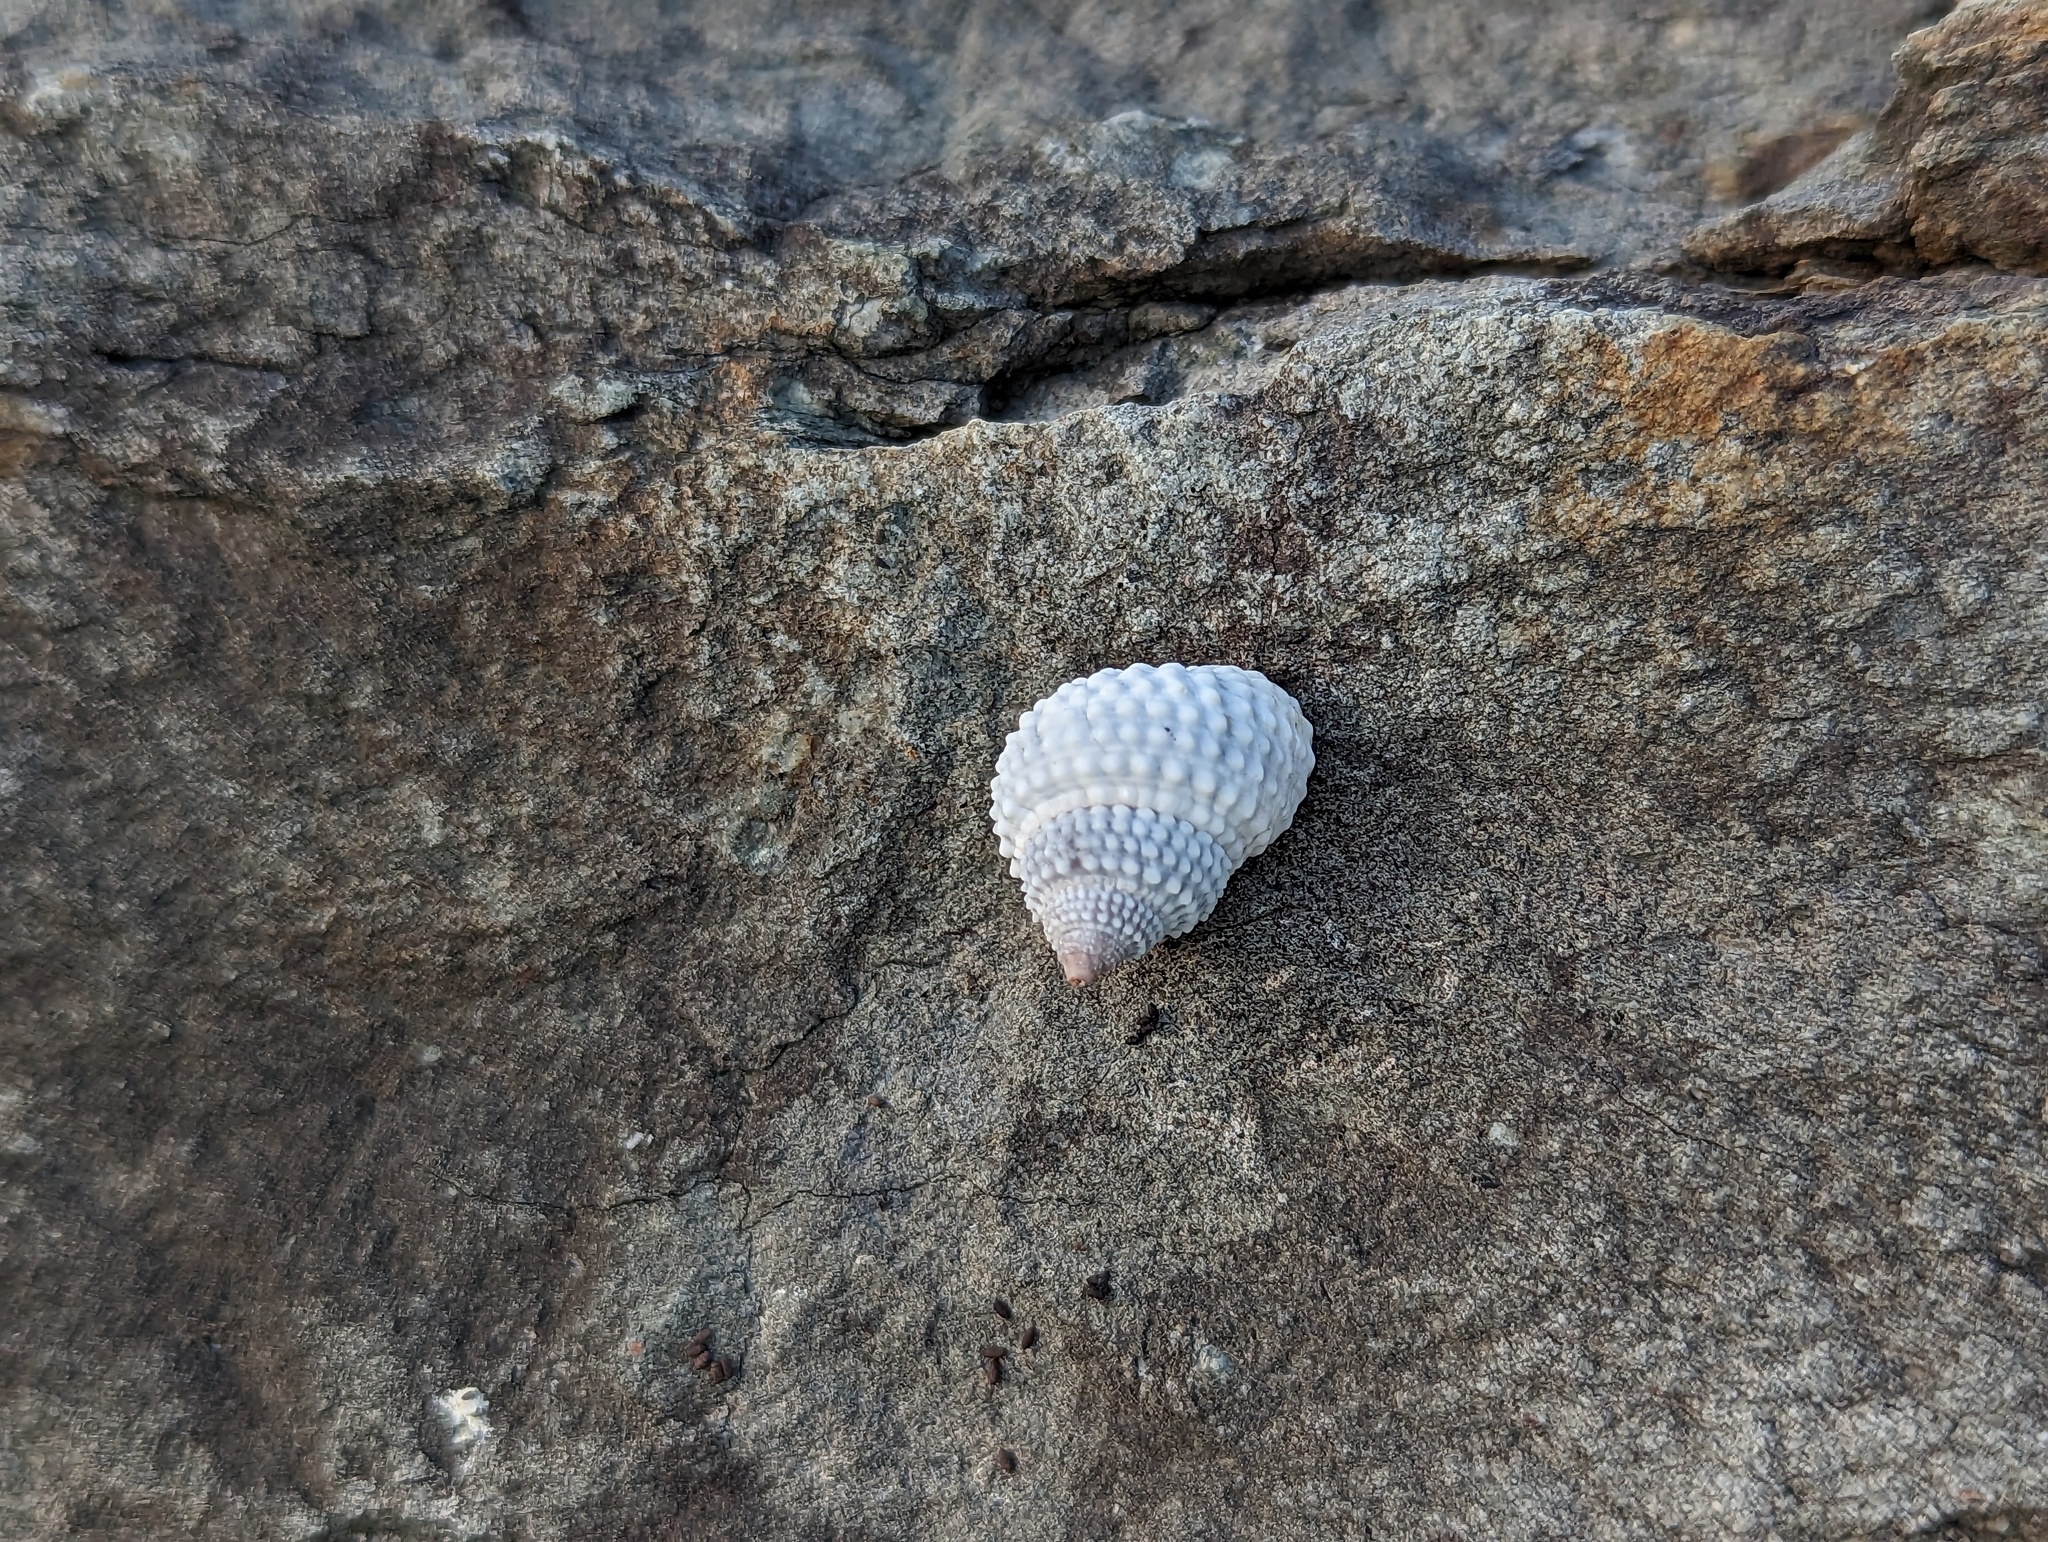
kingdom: Animalia
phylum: Mollusca
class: Gastropoda
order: Littorinimorpha
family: Littorinidae
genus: Cenchritis
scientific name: Cenchritis muricatus
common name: Beaded periwinkle
